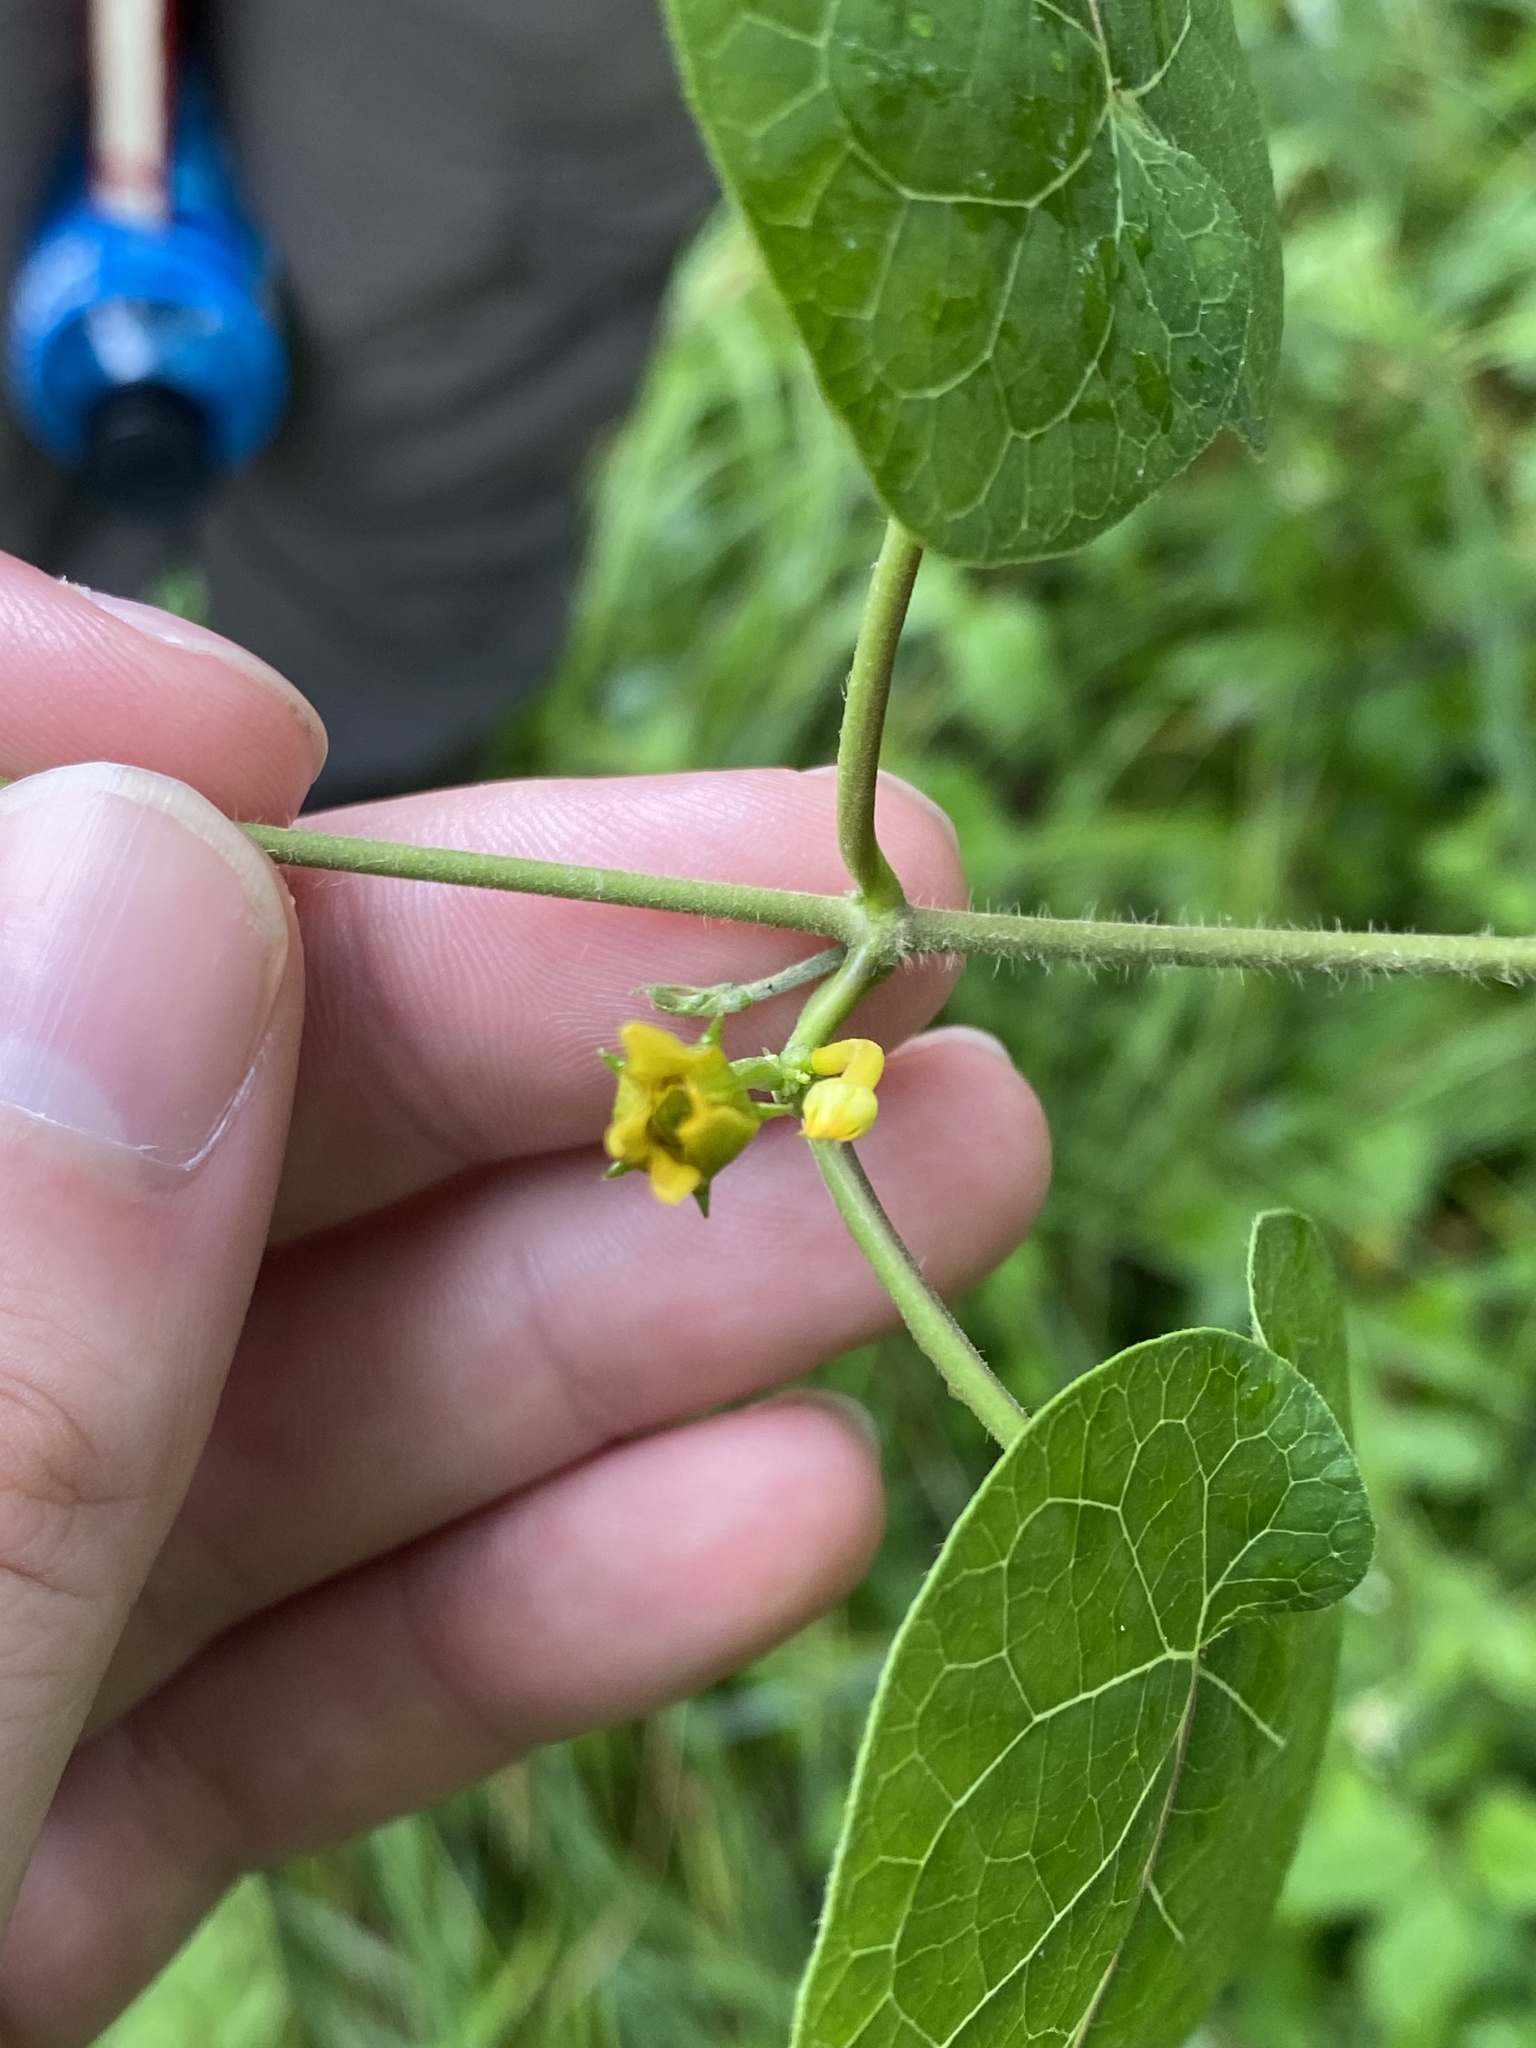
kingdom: Plantae
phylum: Tracheophyta
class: Magnoliopsida
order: Gentianales
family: Apocynaceae
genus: Gonolobus
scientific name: Gonolobus suberosus
